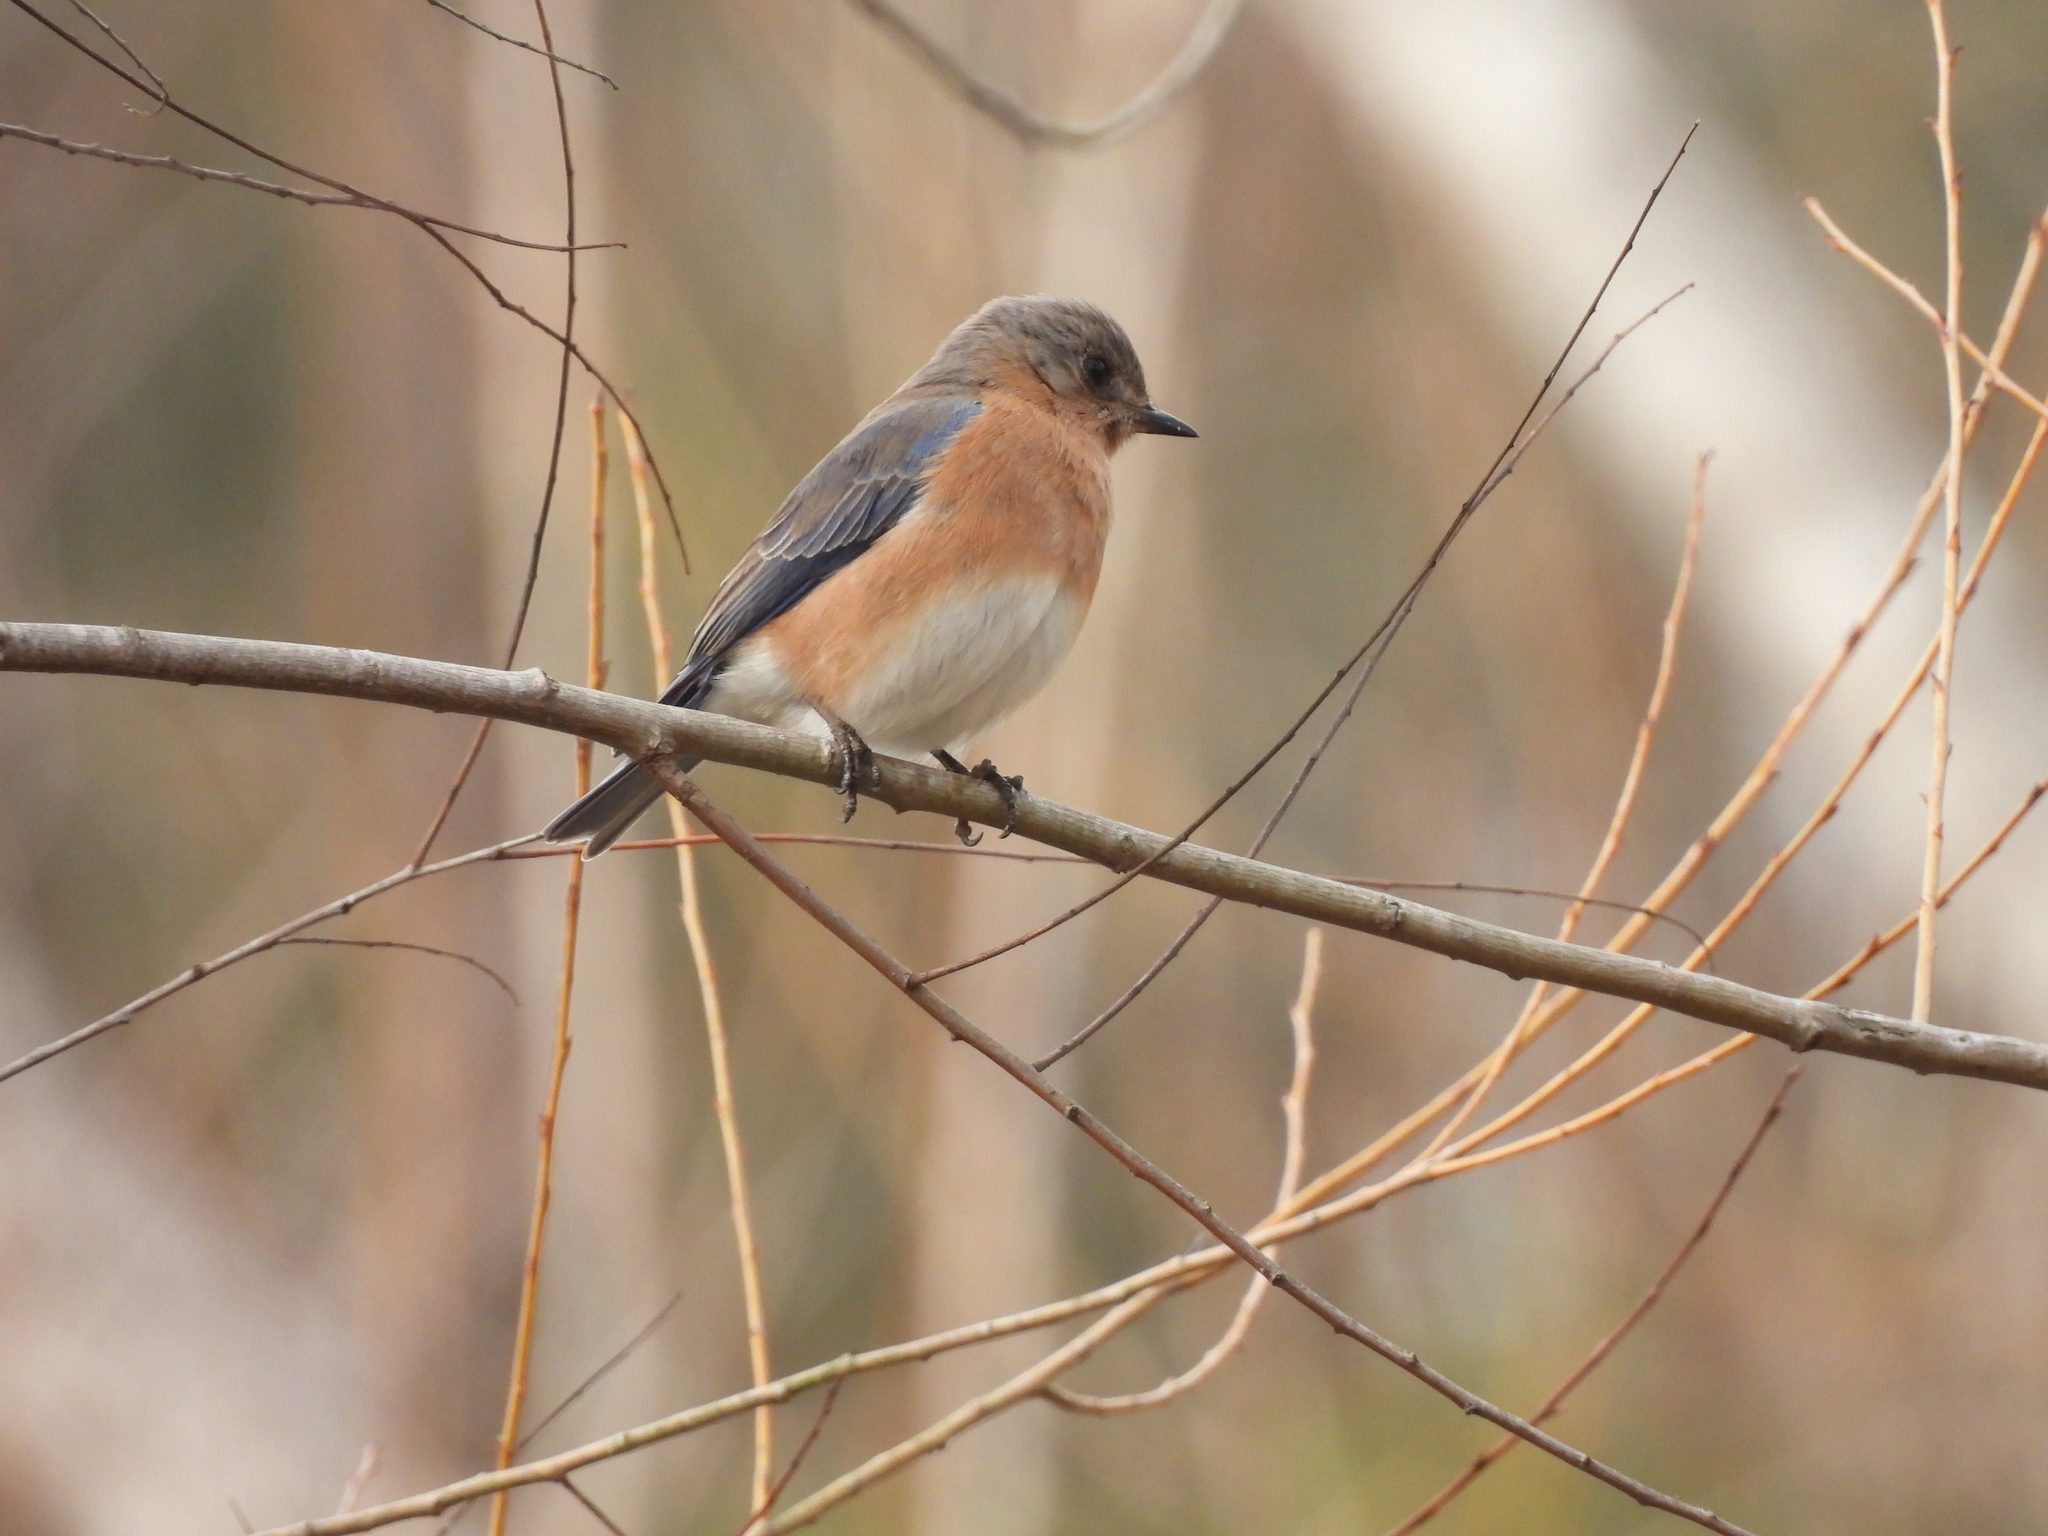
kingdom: Animalia
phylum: Chordata
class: Aves
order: Passeriformes
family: Turdidae
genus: Sialia
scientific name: Sialia sialis
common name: Eastern bluebird
